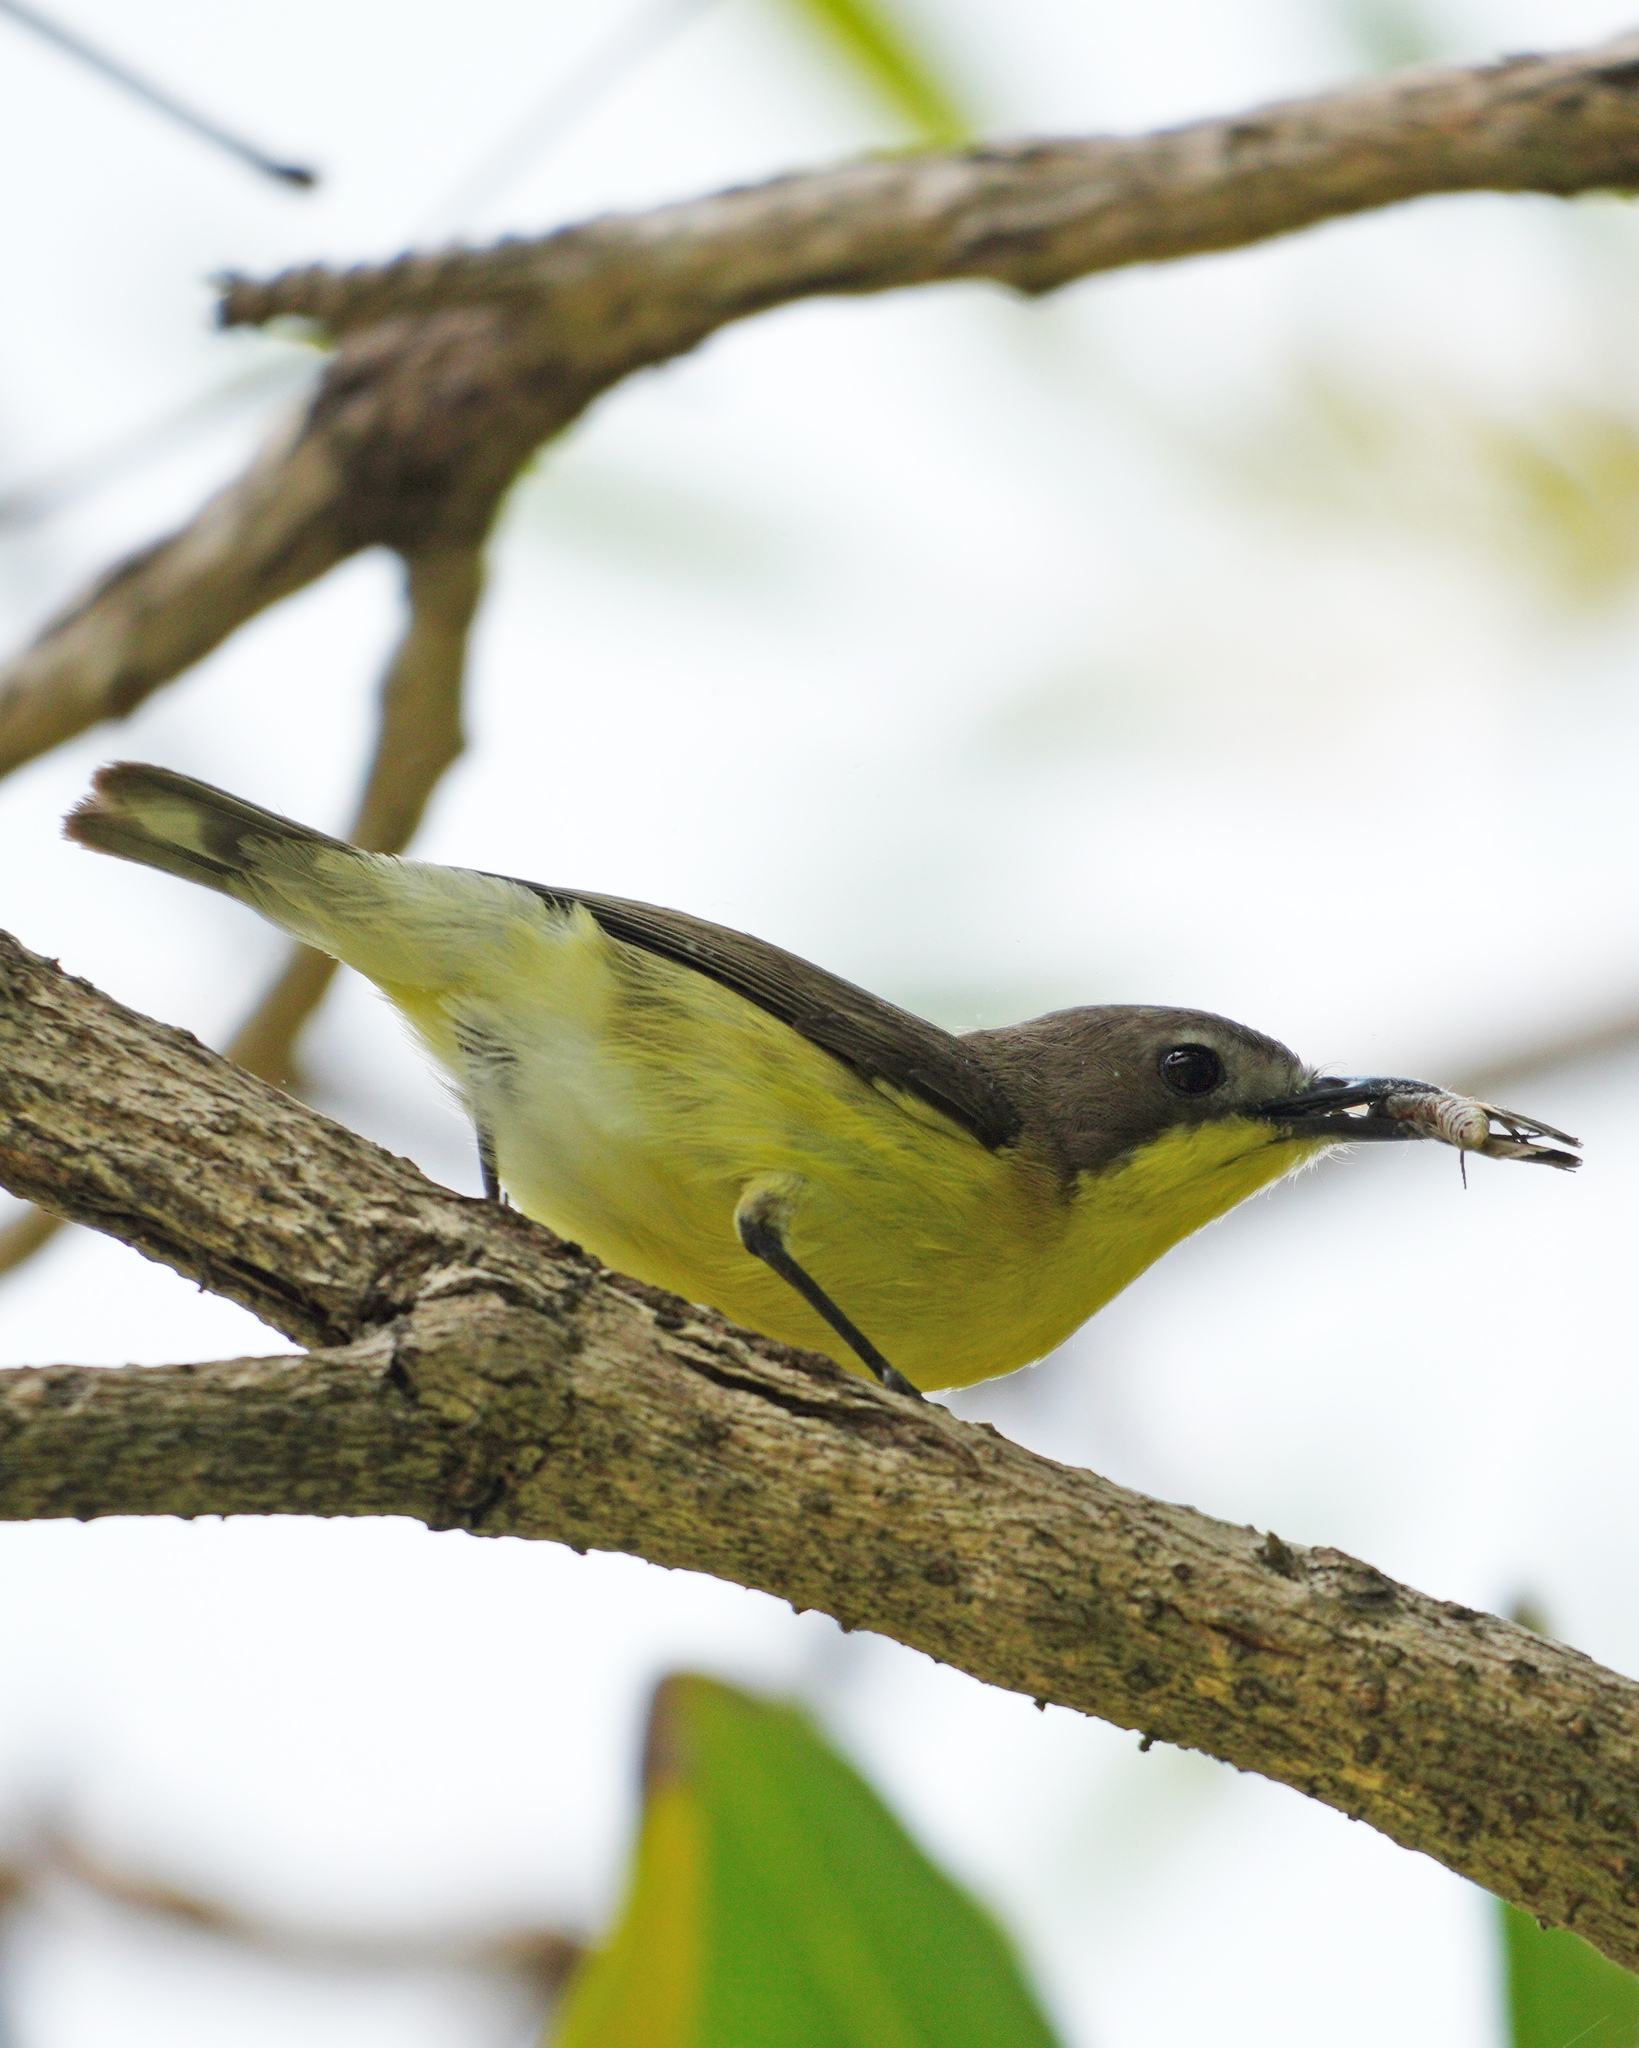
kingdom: Animalia
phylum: Chordata
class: Aves
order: Passeriformes
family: Acanthizidae
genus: Gerygone
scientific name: Gerygone sulphurea
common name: Golden-bellied gerygone
